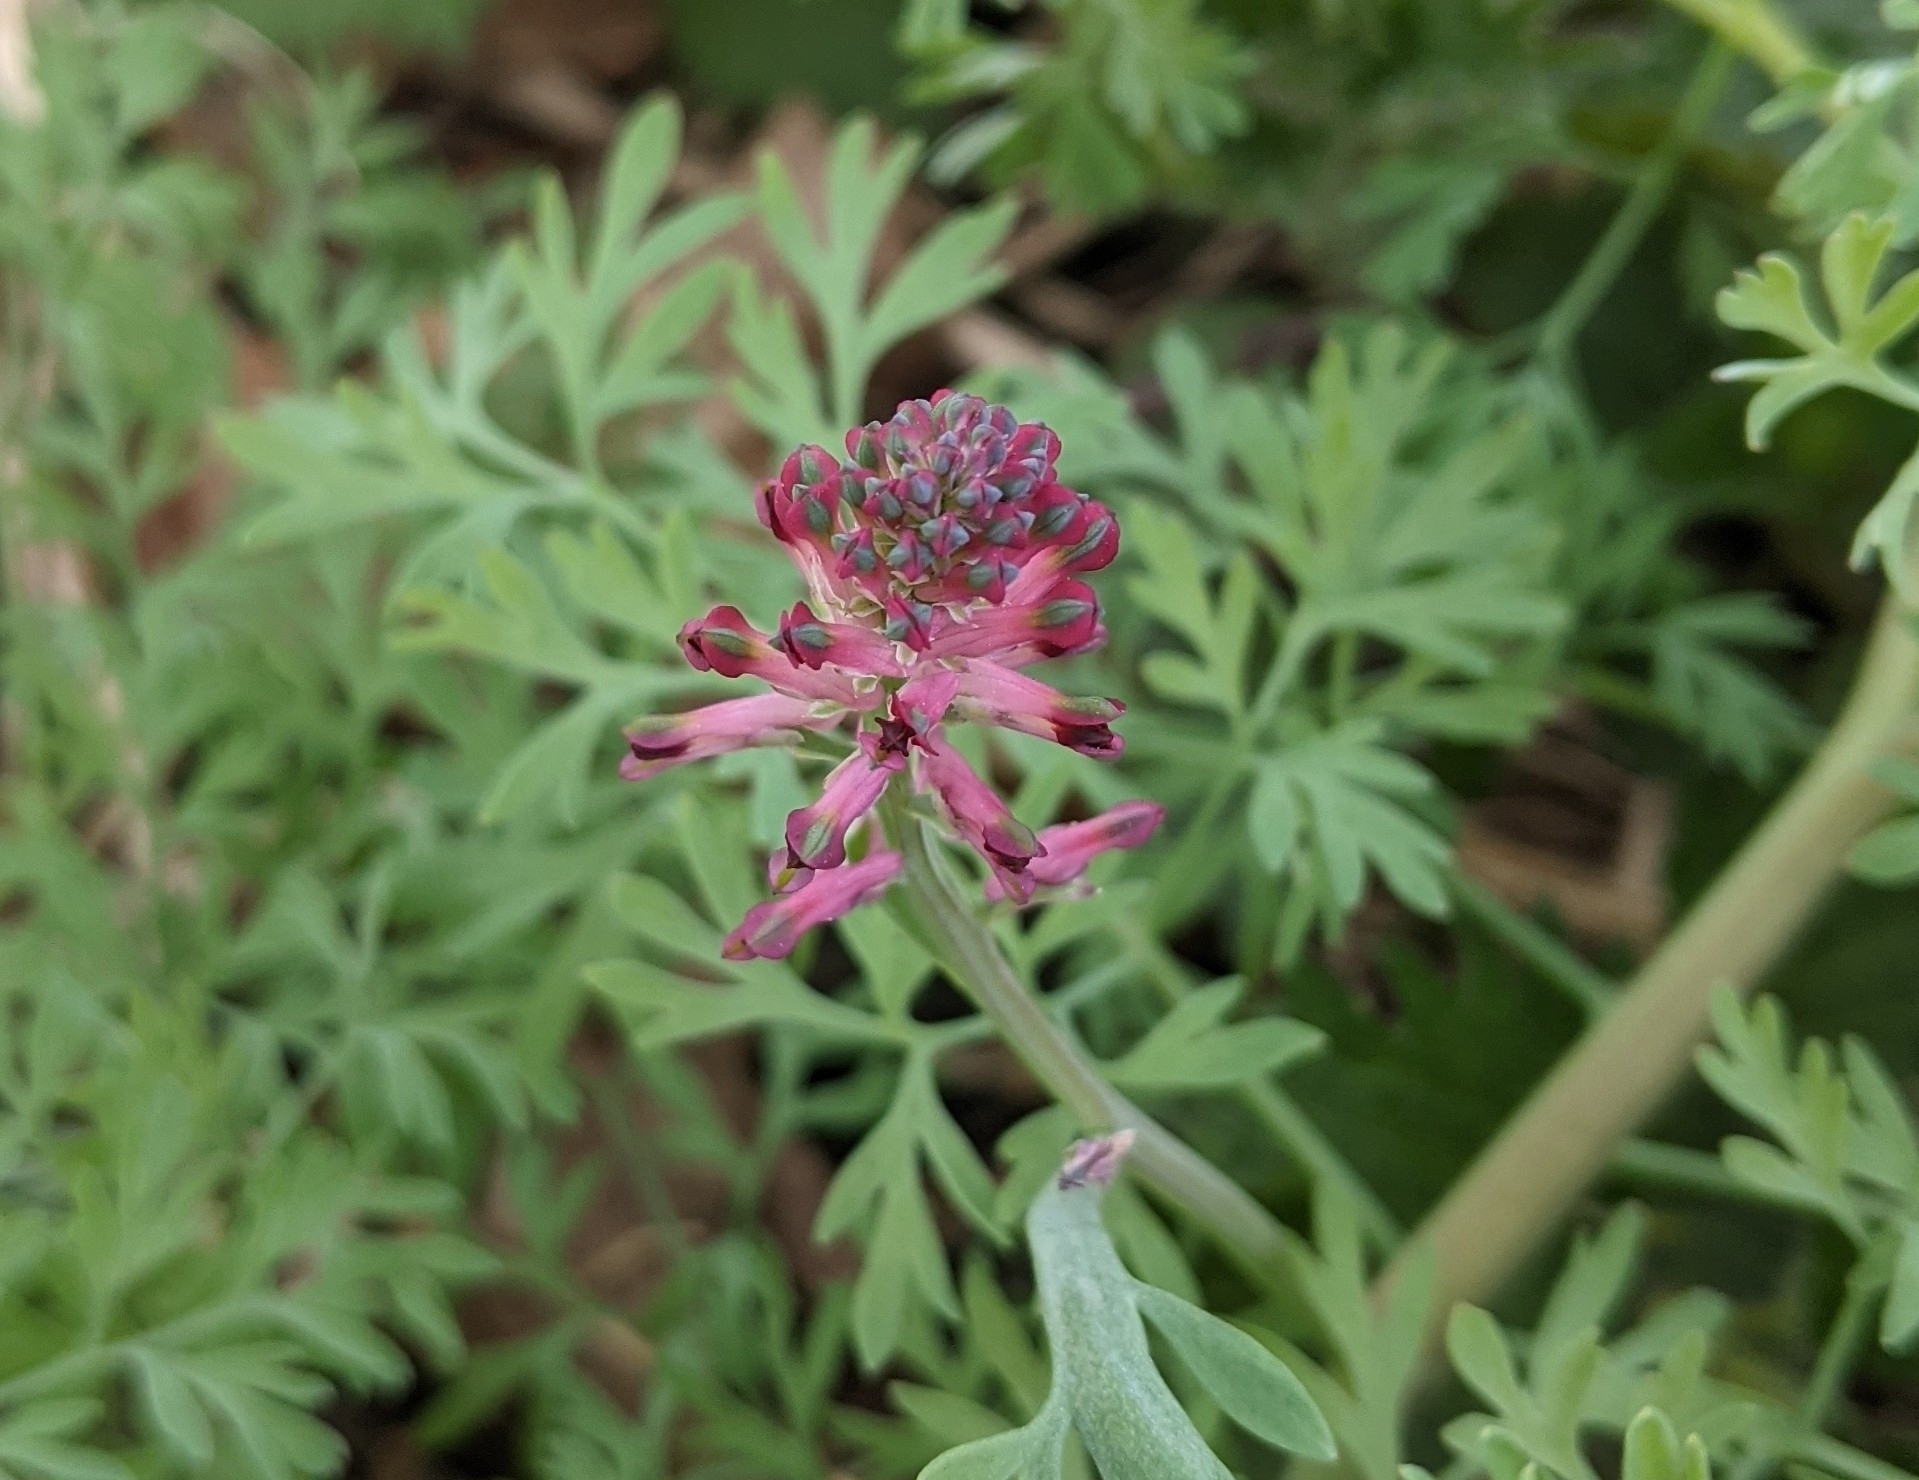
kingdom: Plantae
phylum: Tracheophyta
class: Magnoliopsida
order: Ranunculales
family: Papaveraceae
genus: Fumaria
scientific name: Fumaria officinalis
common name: Common fumitory
